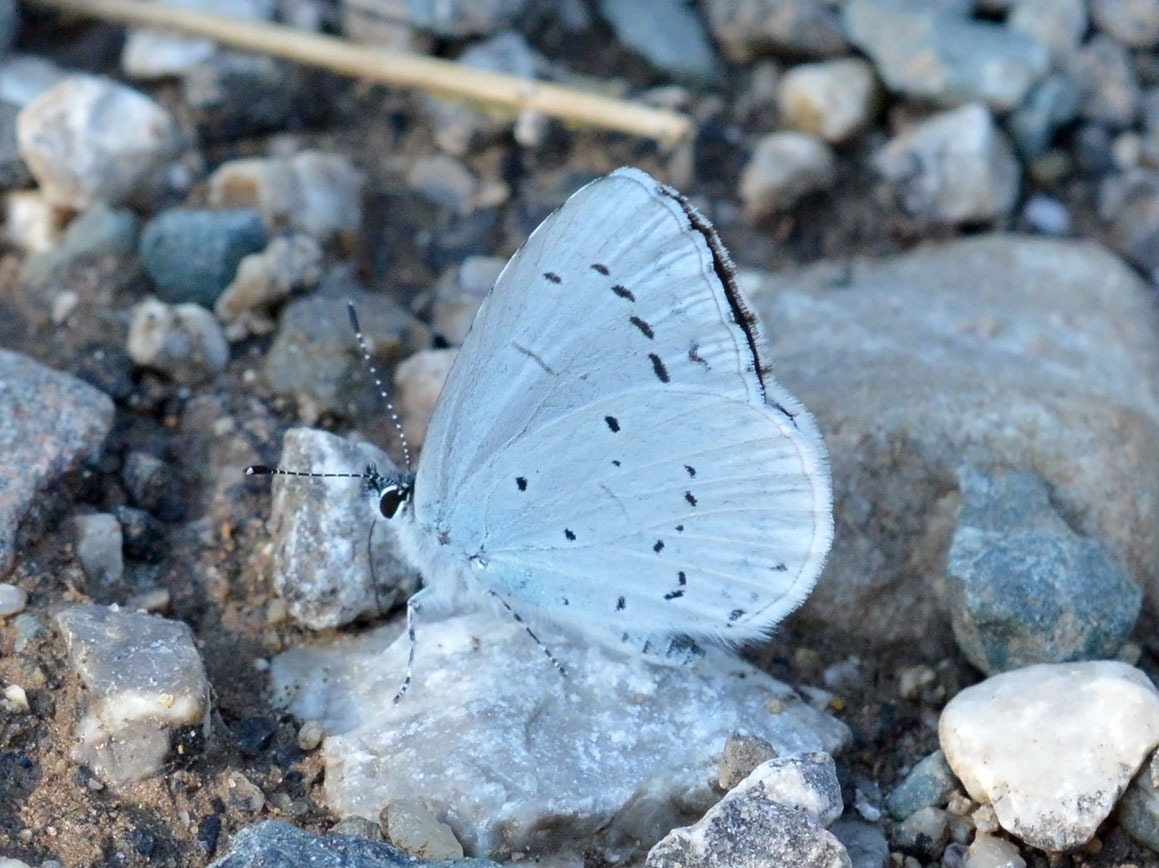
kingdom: Animalia
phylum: Arthropoda
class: Insecta
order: Lepidoptera
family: Lycaenidae
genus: Celastrina
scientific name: Celastrina argiolus
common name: Holly blue
